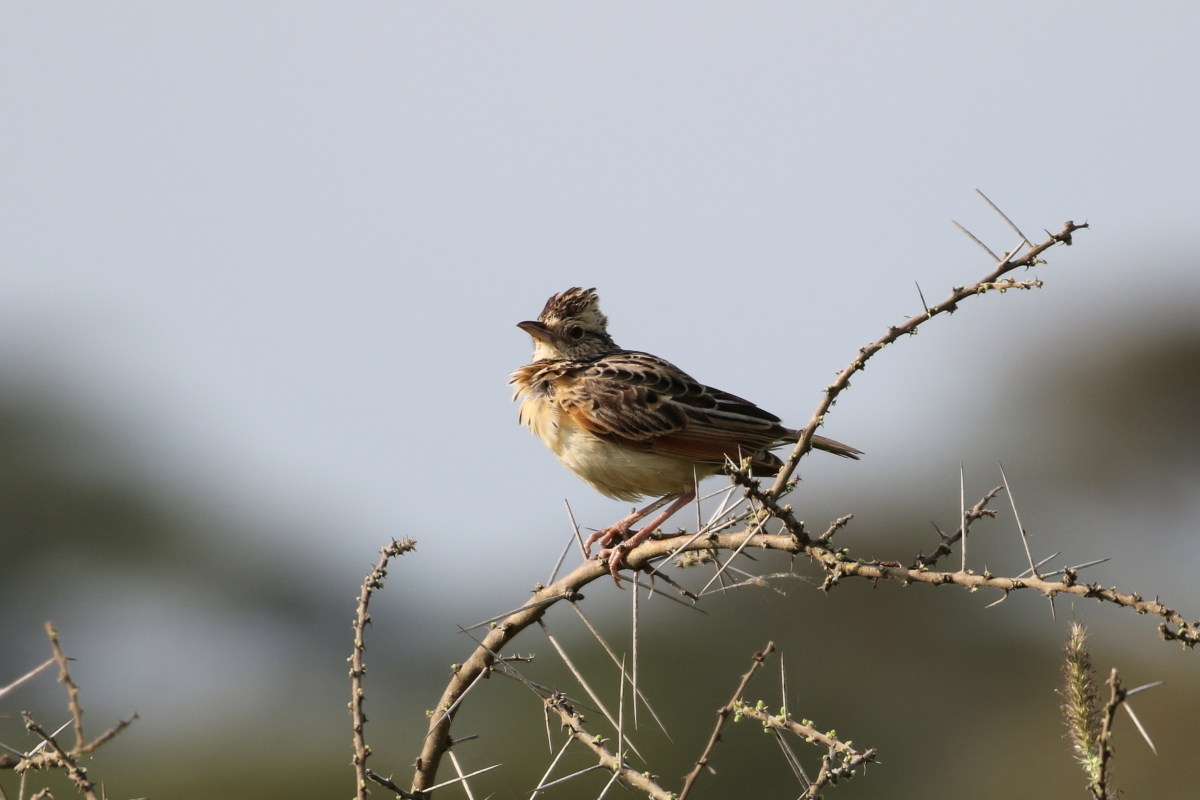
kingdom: Animalia
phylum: Chordata
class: Aves
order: Passeriformes
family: Alaudidae
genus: Mirafra
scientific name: Mirafra africana
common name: Rufous-naped lark
